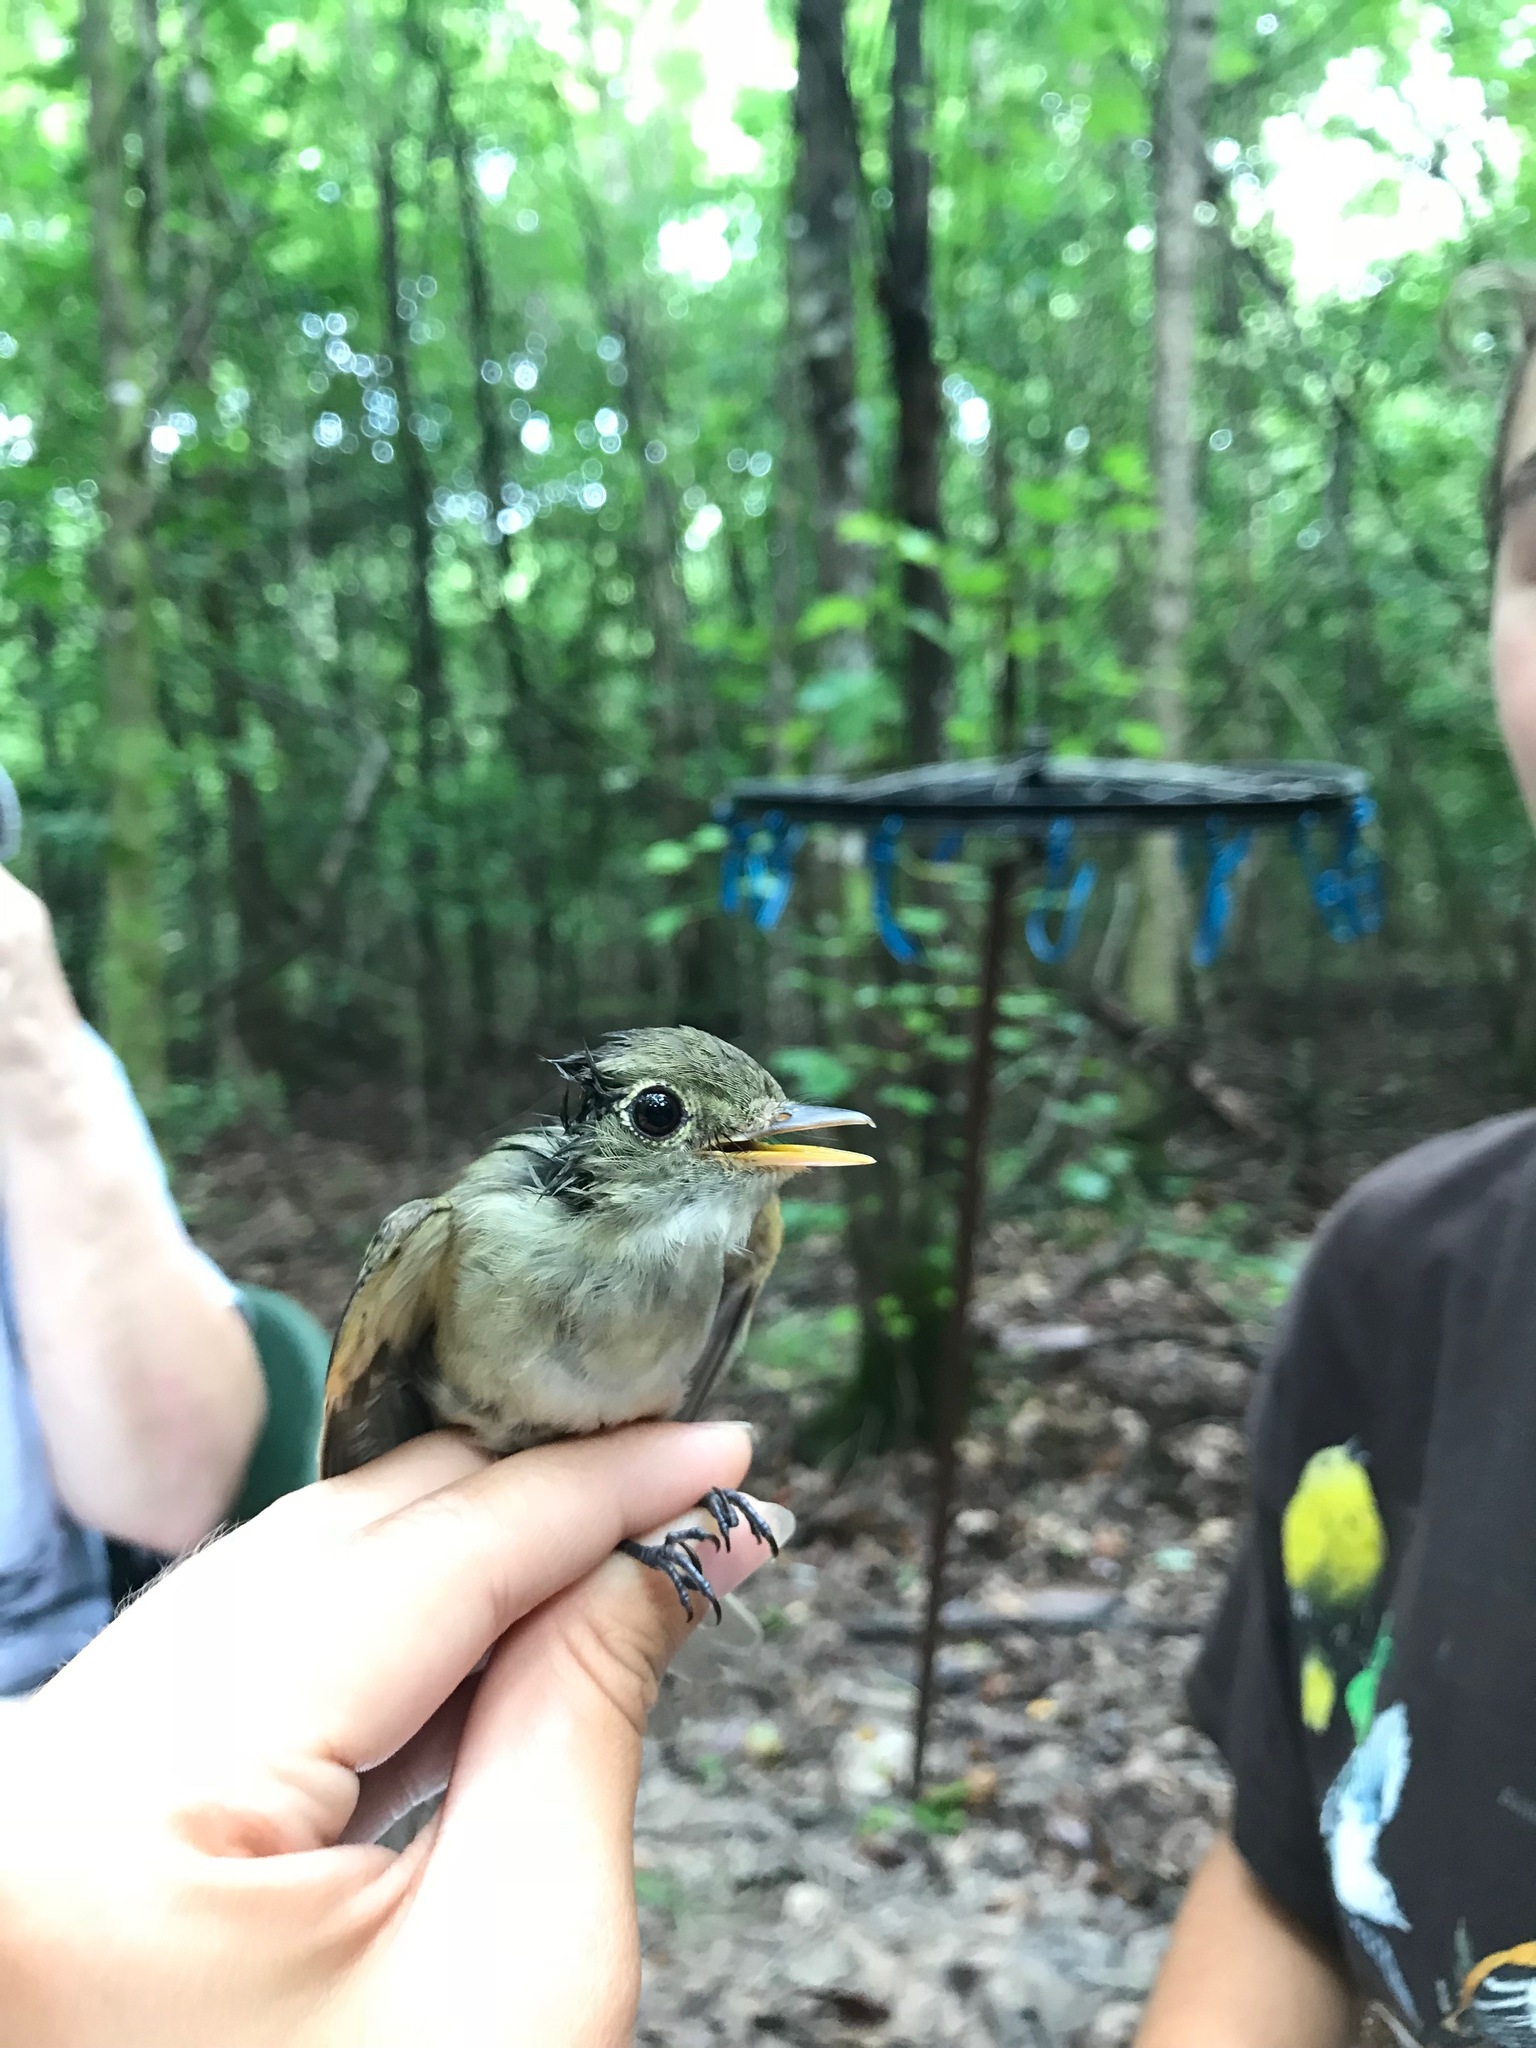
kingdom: Animalia
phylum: Chordata
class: Aves
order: Passeriformes
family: Tyrannidae
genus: Empidonax
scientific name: Empidonax virescens
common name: Acadian flycatcher
